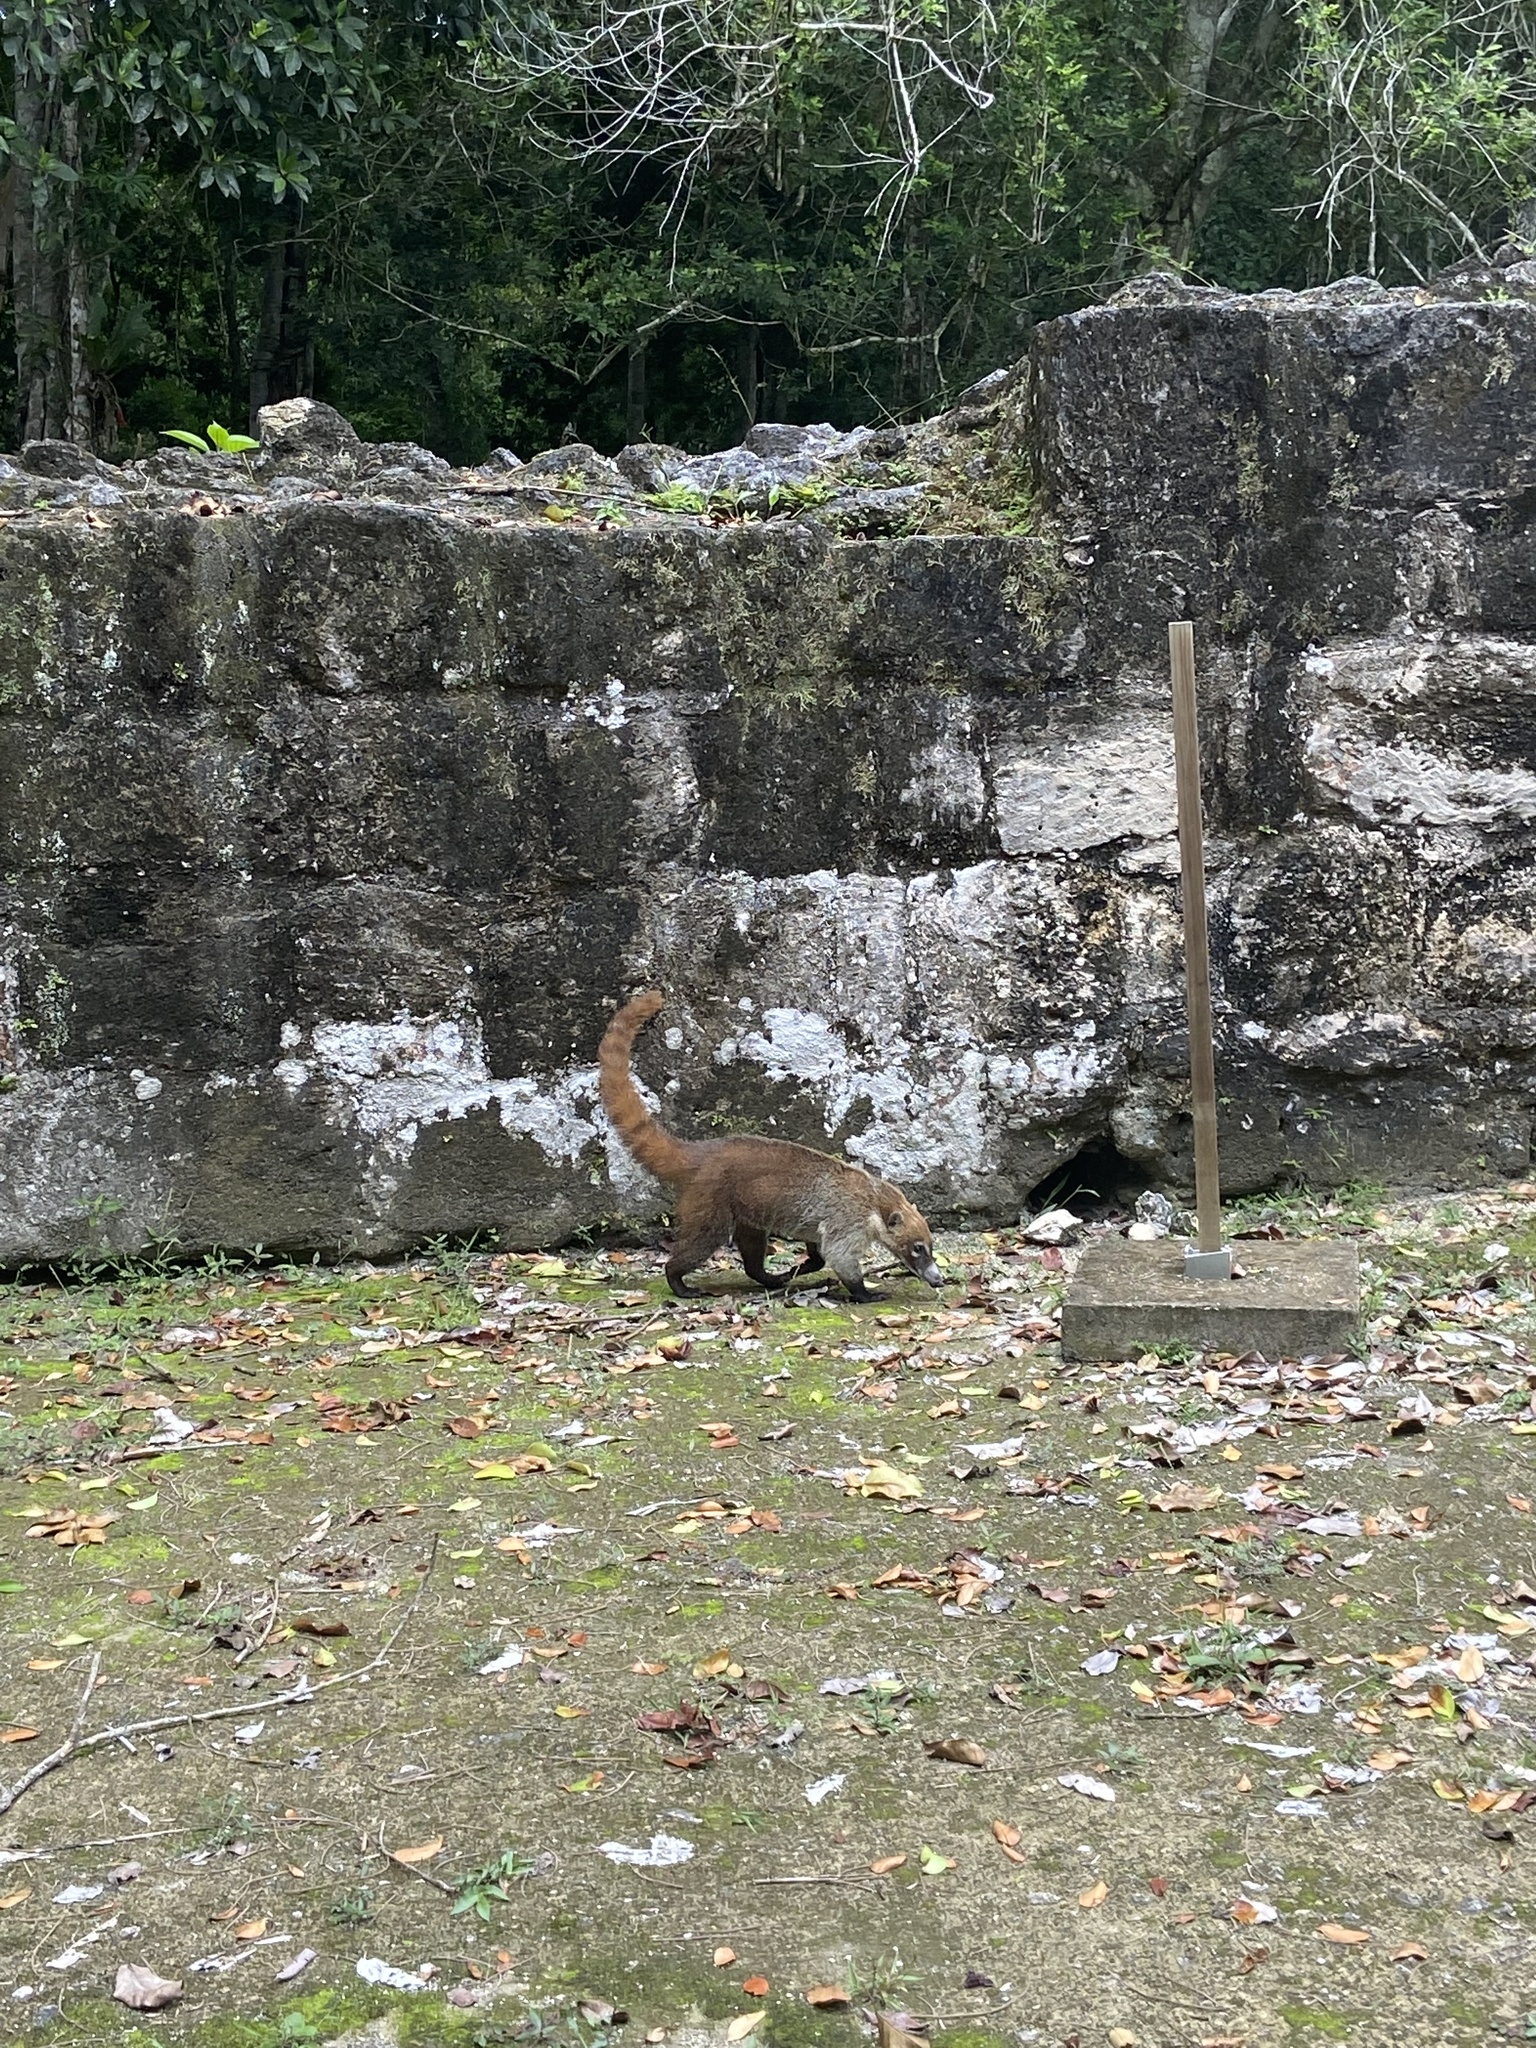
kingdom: Animalia
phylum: Chordata
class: Mammalia
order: Carnivora
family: Procyonidae
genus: Nasua
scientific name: Nasua narica
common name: White-nosed coati
